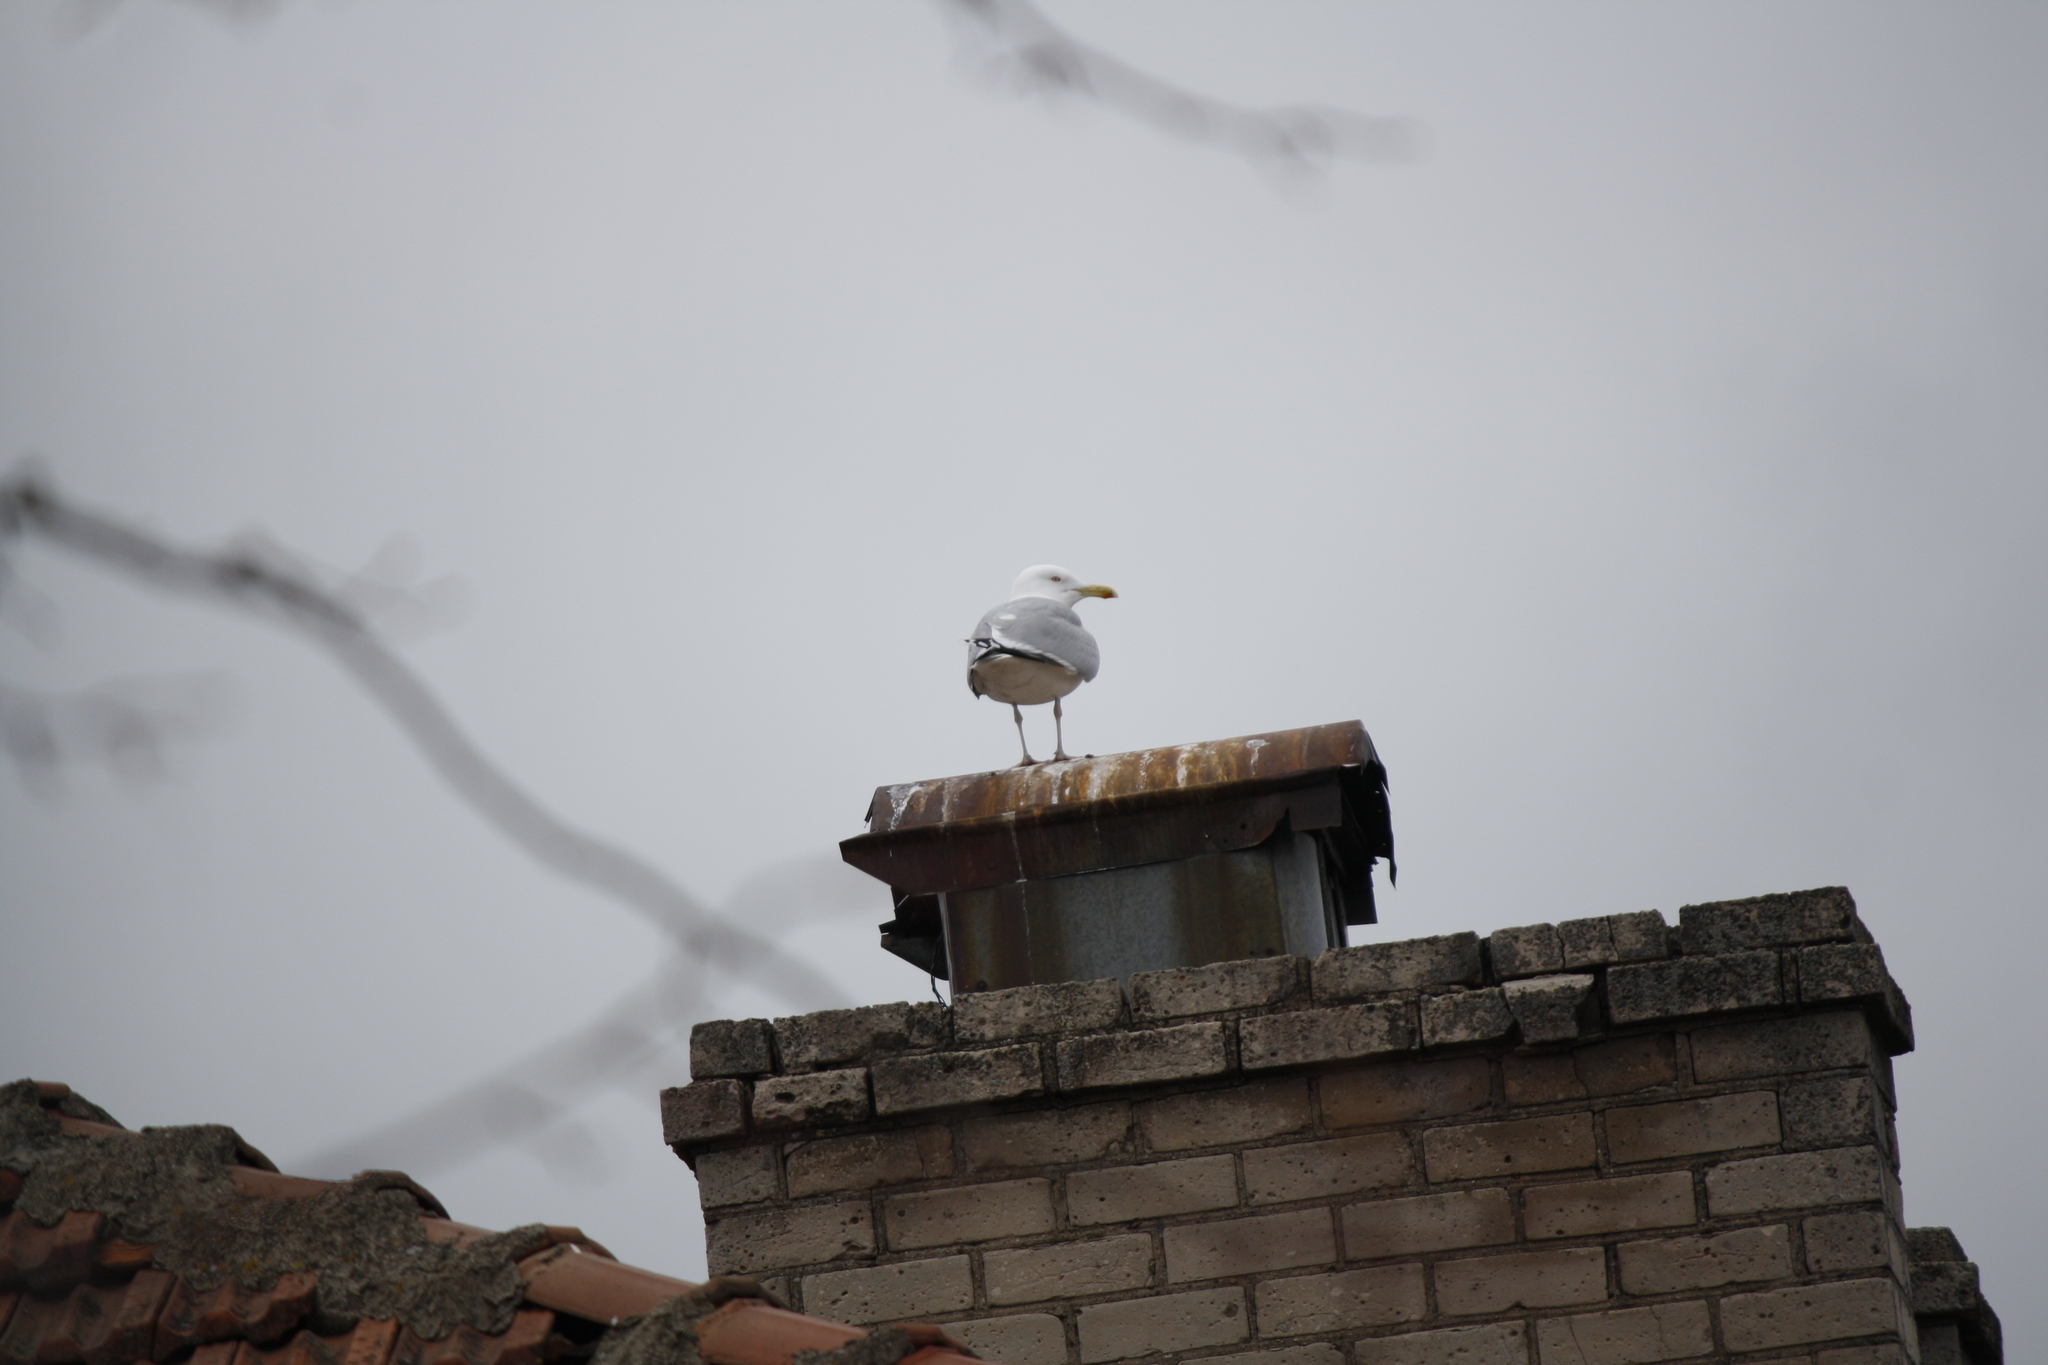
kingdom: Animalia
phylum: Chordata
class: Aves
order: Charadriiformes
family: Laridae
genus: Larus
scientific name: Larus argentatus
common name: Herring gull
